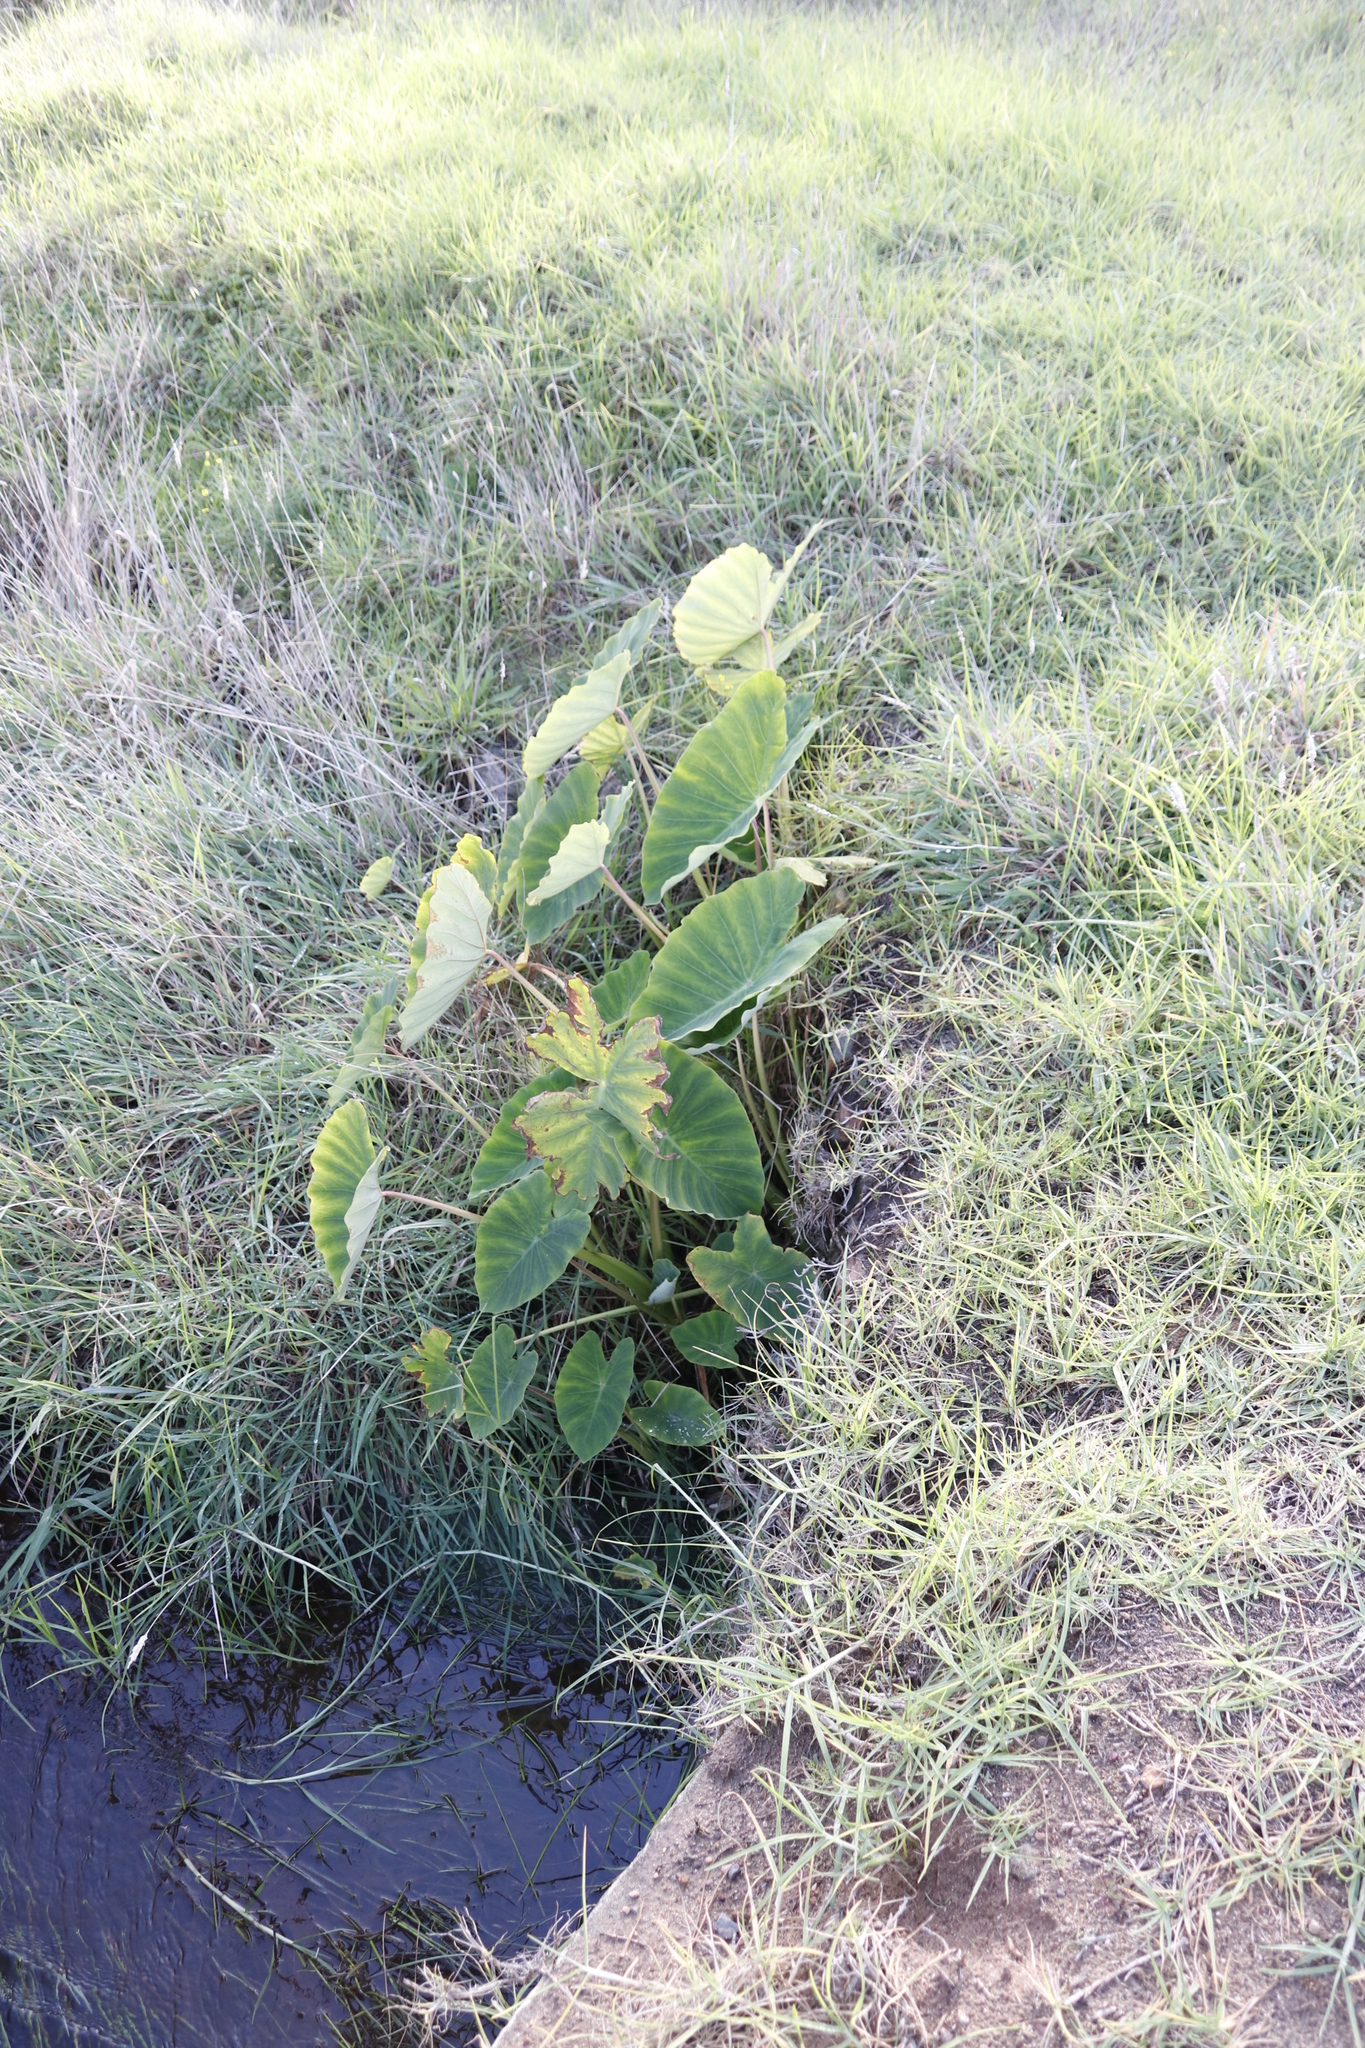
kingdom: Plantae
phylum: Tracheophyta
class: Liliopsida
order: Alismatales
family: Araceae
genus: Colocasia
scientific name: Colocasia esculenta
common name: Taro
